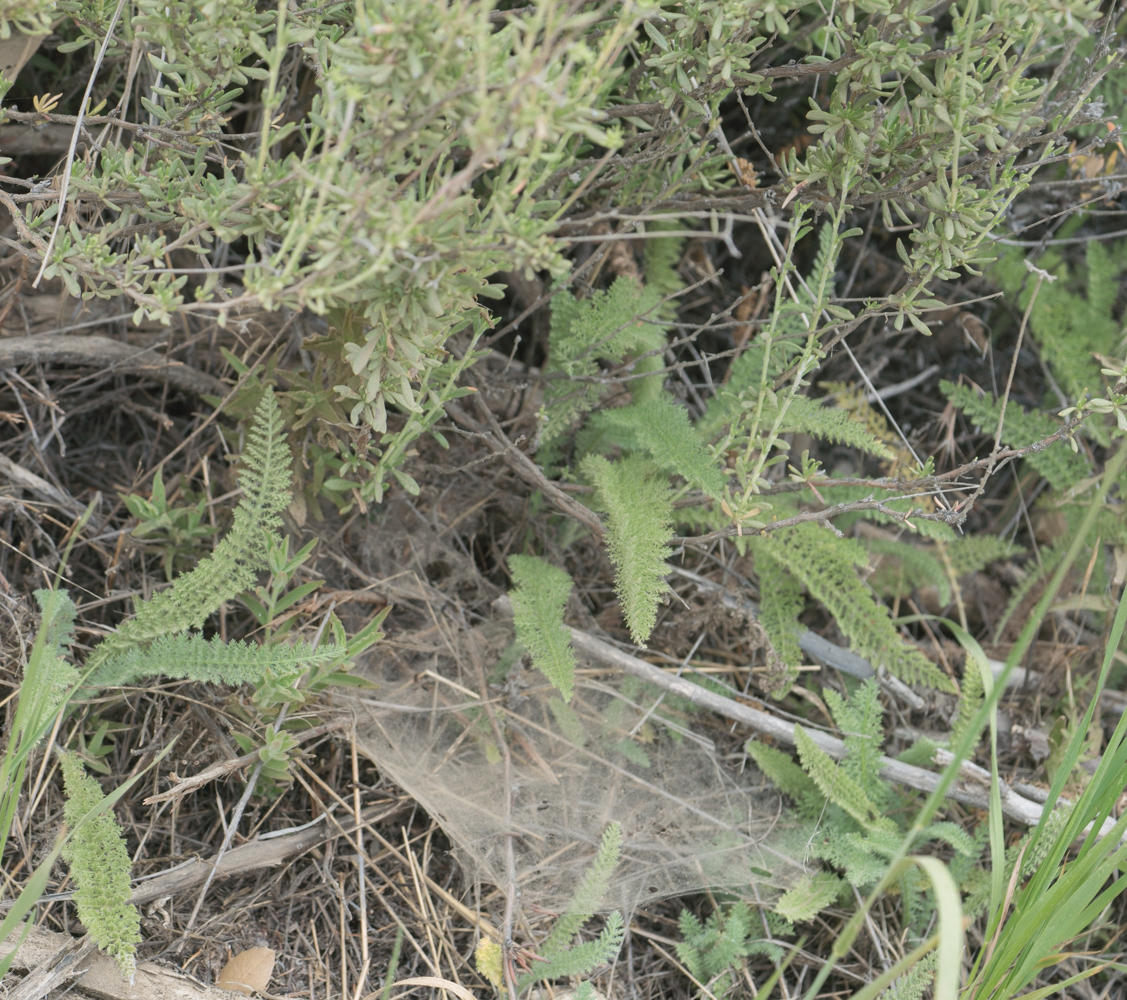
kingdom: Plantae
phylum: Tracheophyta
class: Magnoliopsida
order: Asterales
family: Asteraceae
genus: Achillea
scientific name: Achillea millefolium
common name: Yarrow
